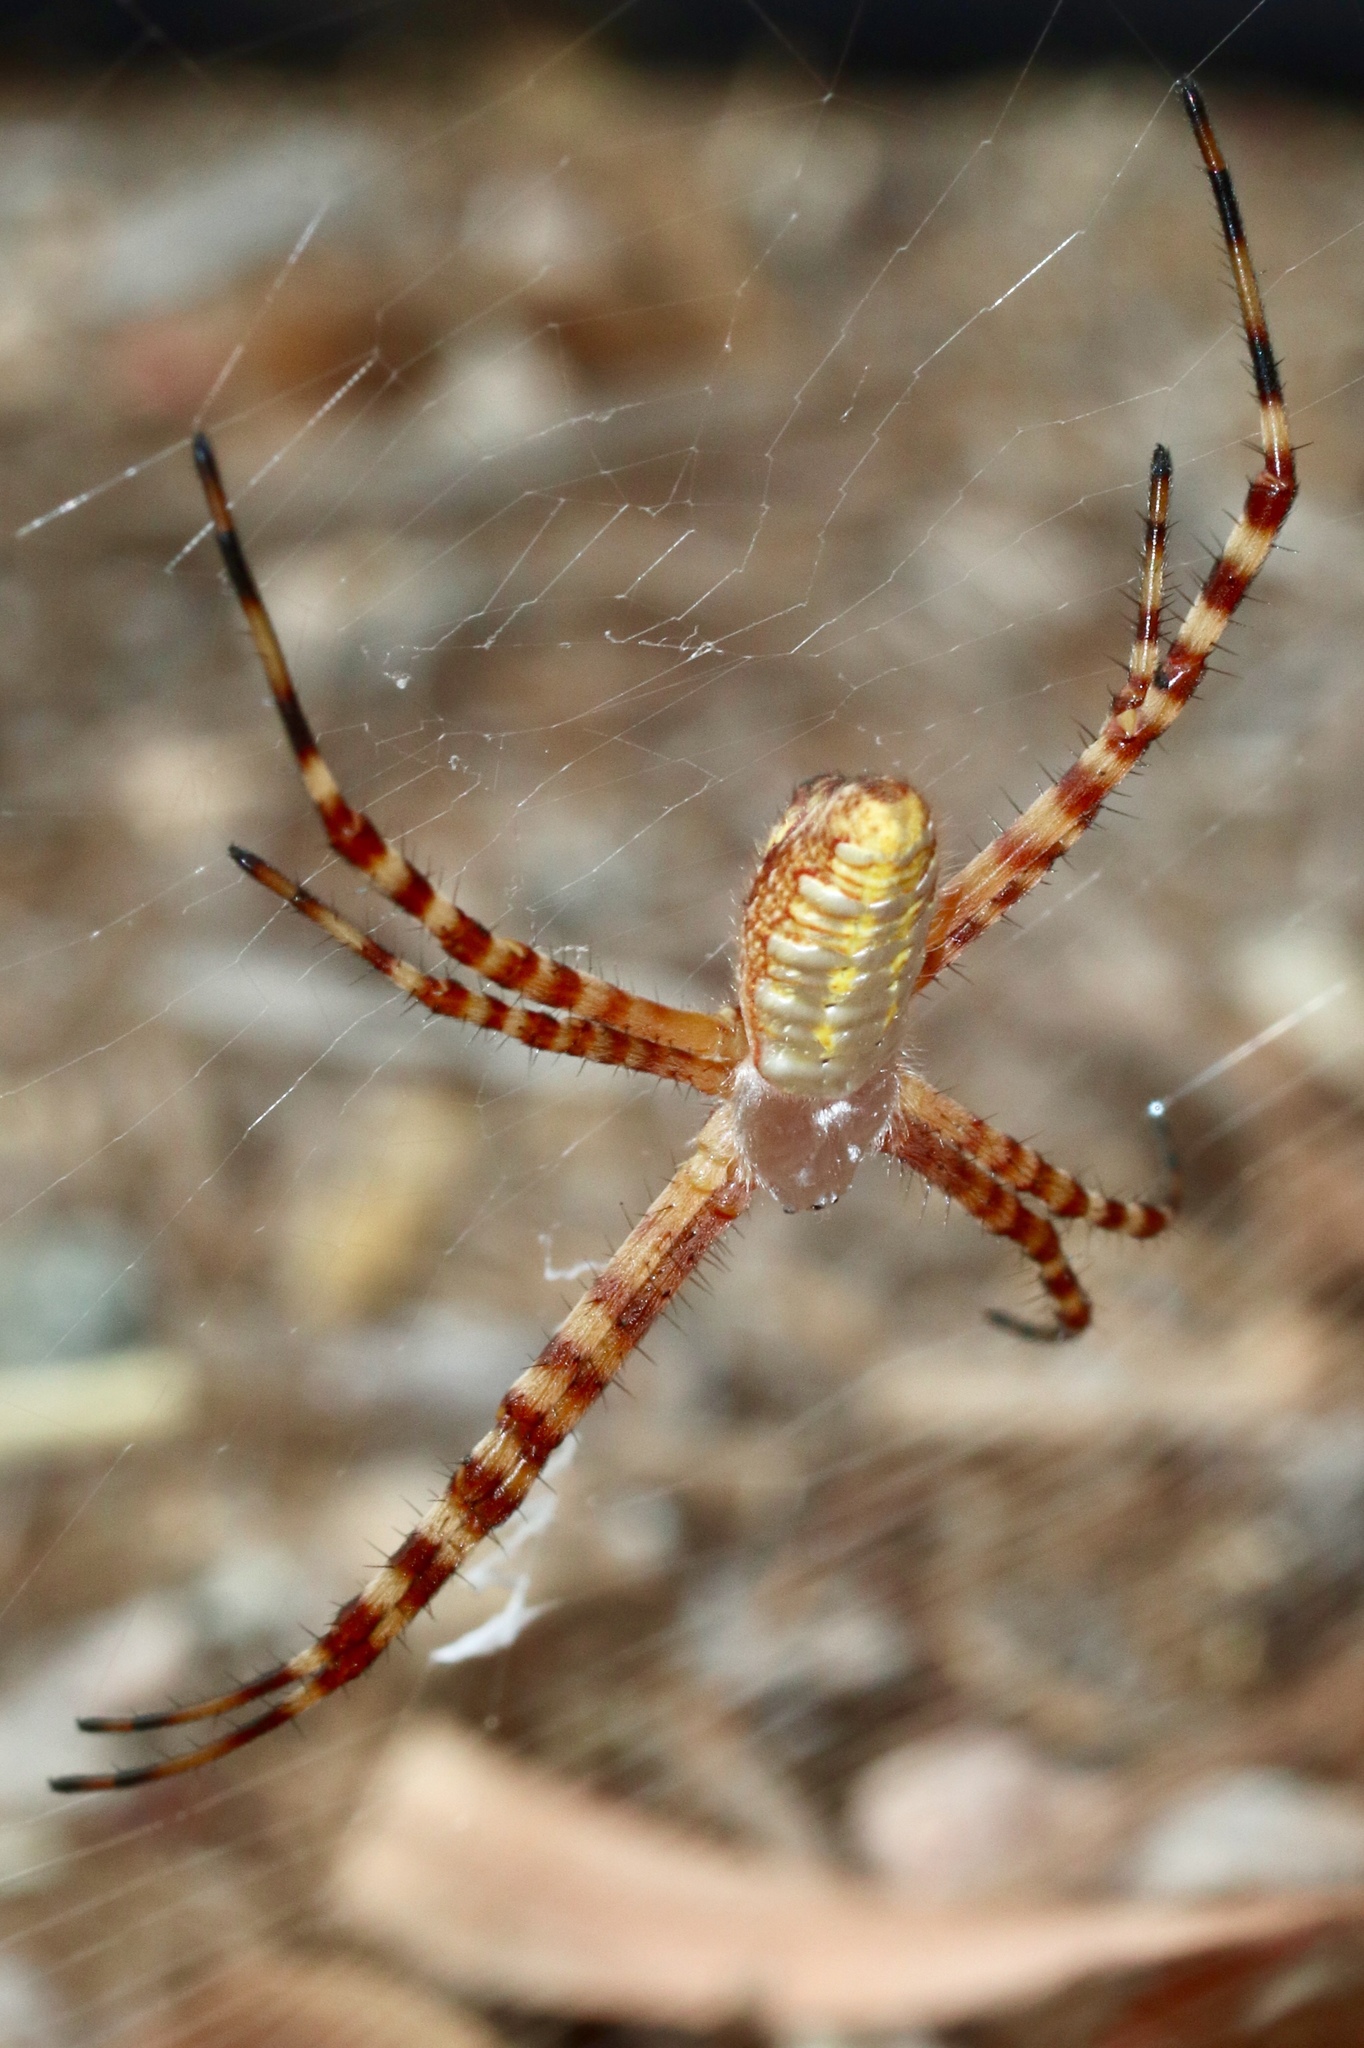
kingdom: Animalia
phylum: Arthropoda
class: Arachnida
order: Araneae
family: Araneidae
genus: Argiope
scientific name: Argiope trifasciata
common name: Banded garden spider
